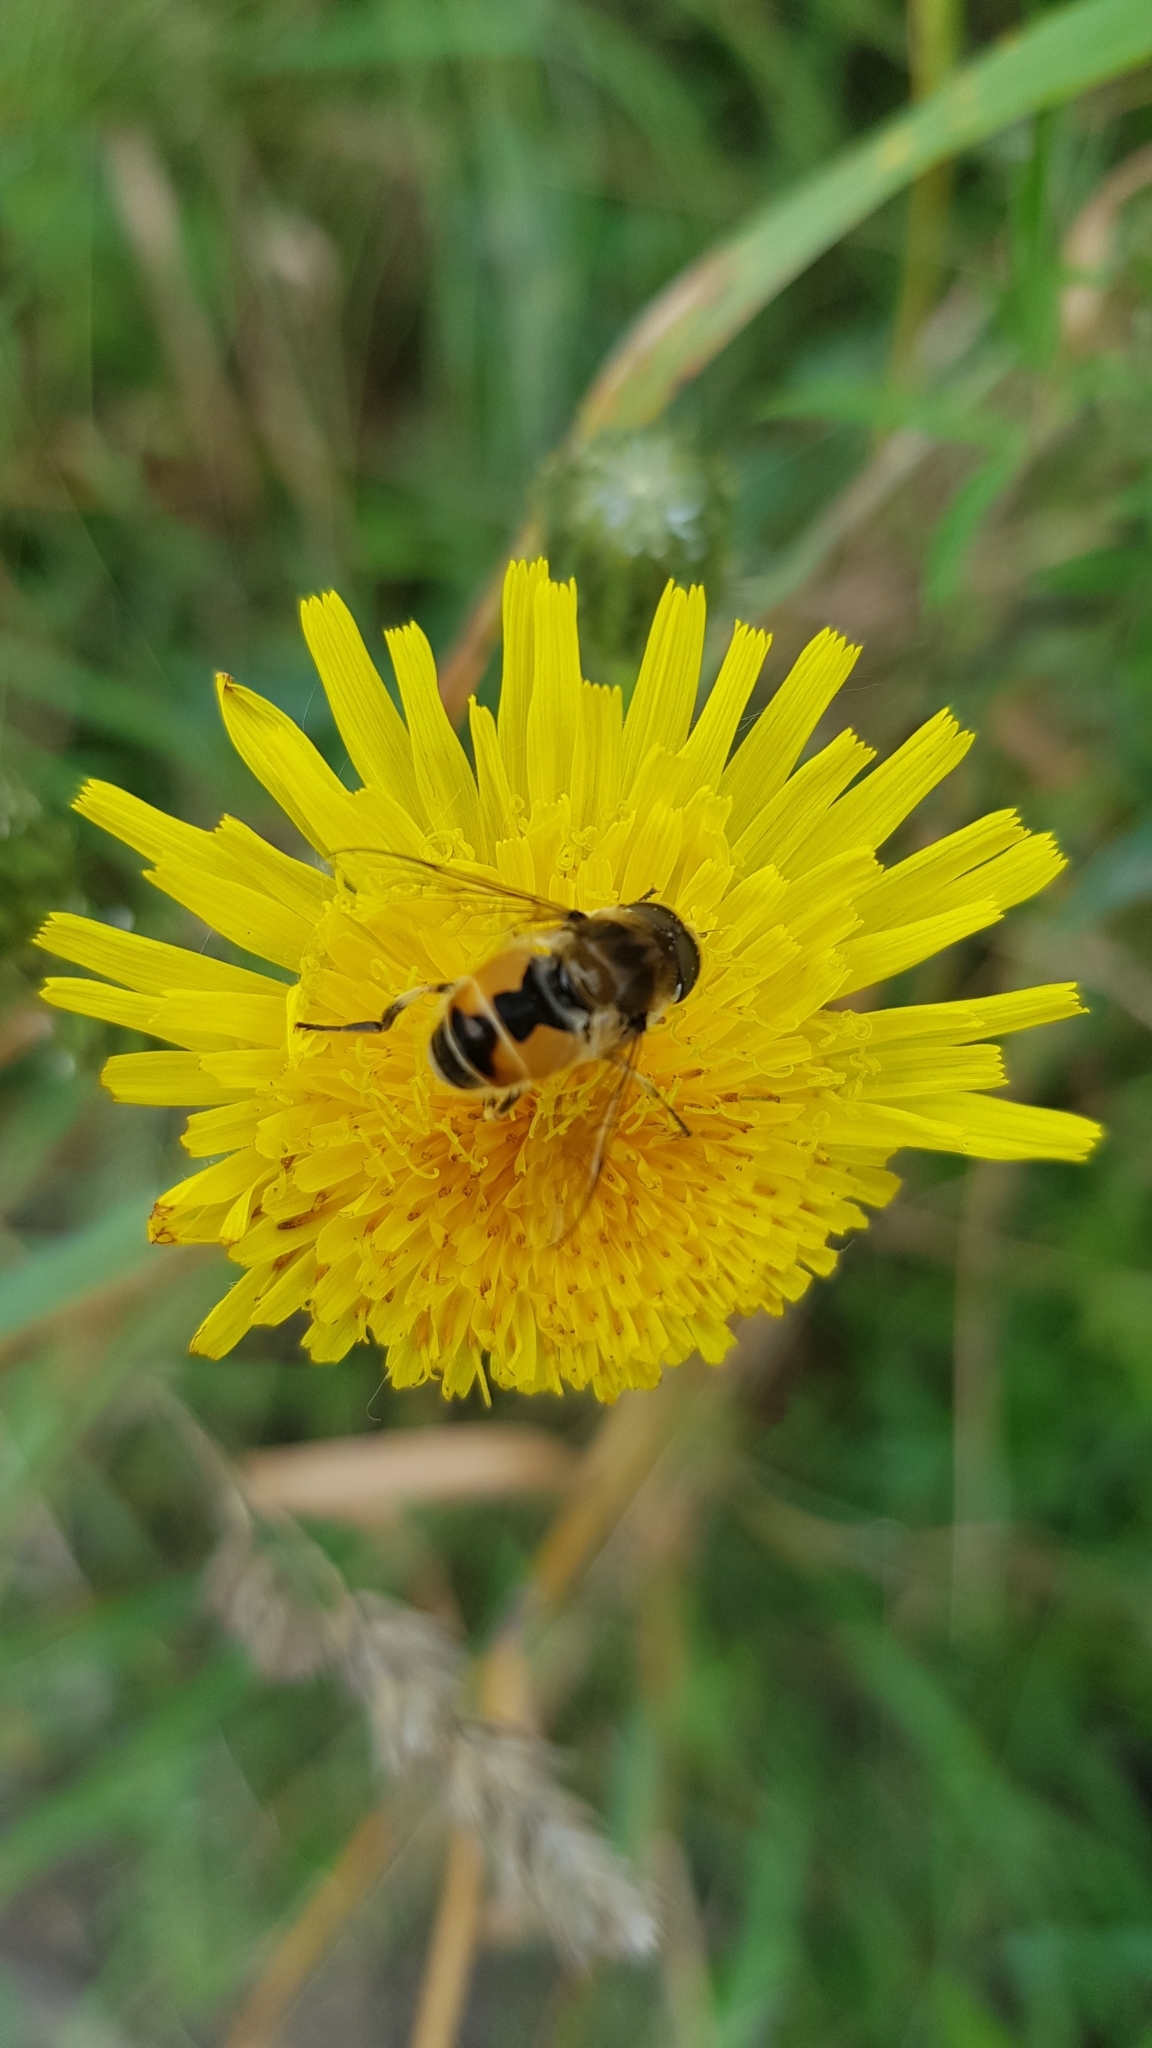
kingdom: Animalia
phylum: Arthropoda
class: Insecta
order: Diptera
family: Syrphidae
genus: Eristalis
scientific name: Eristalis arbustorum
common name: Hover fly
